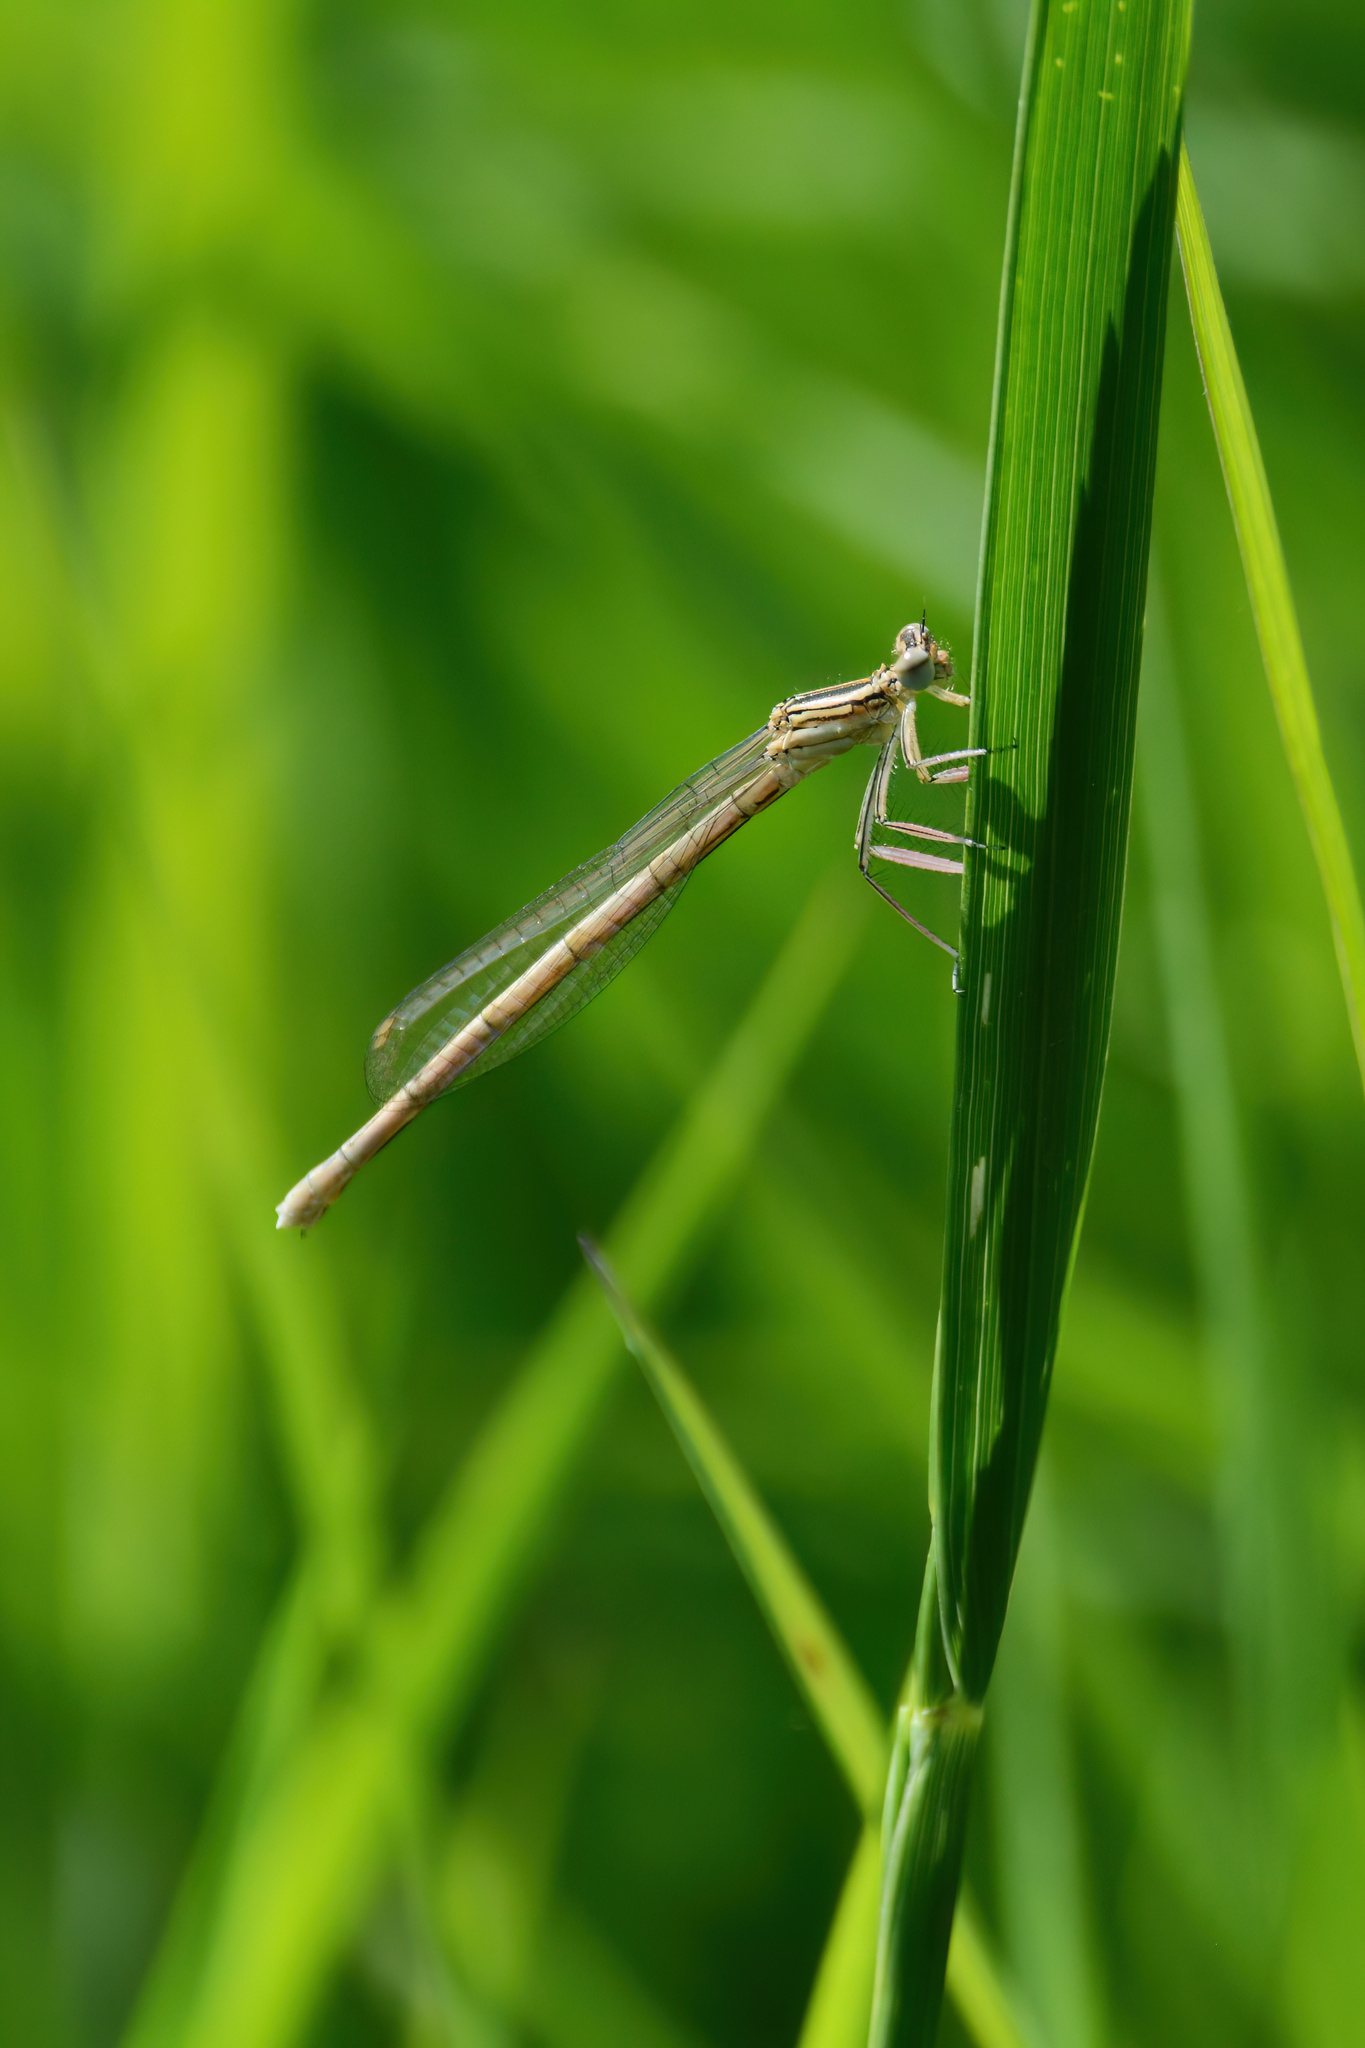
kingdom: Animalia
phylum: Arthropoda
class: Insecta
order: Odonata
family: Platycnemididae
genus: Platycnemis
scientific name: Platycnemis pennipes
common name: White-legged damselfly
